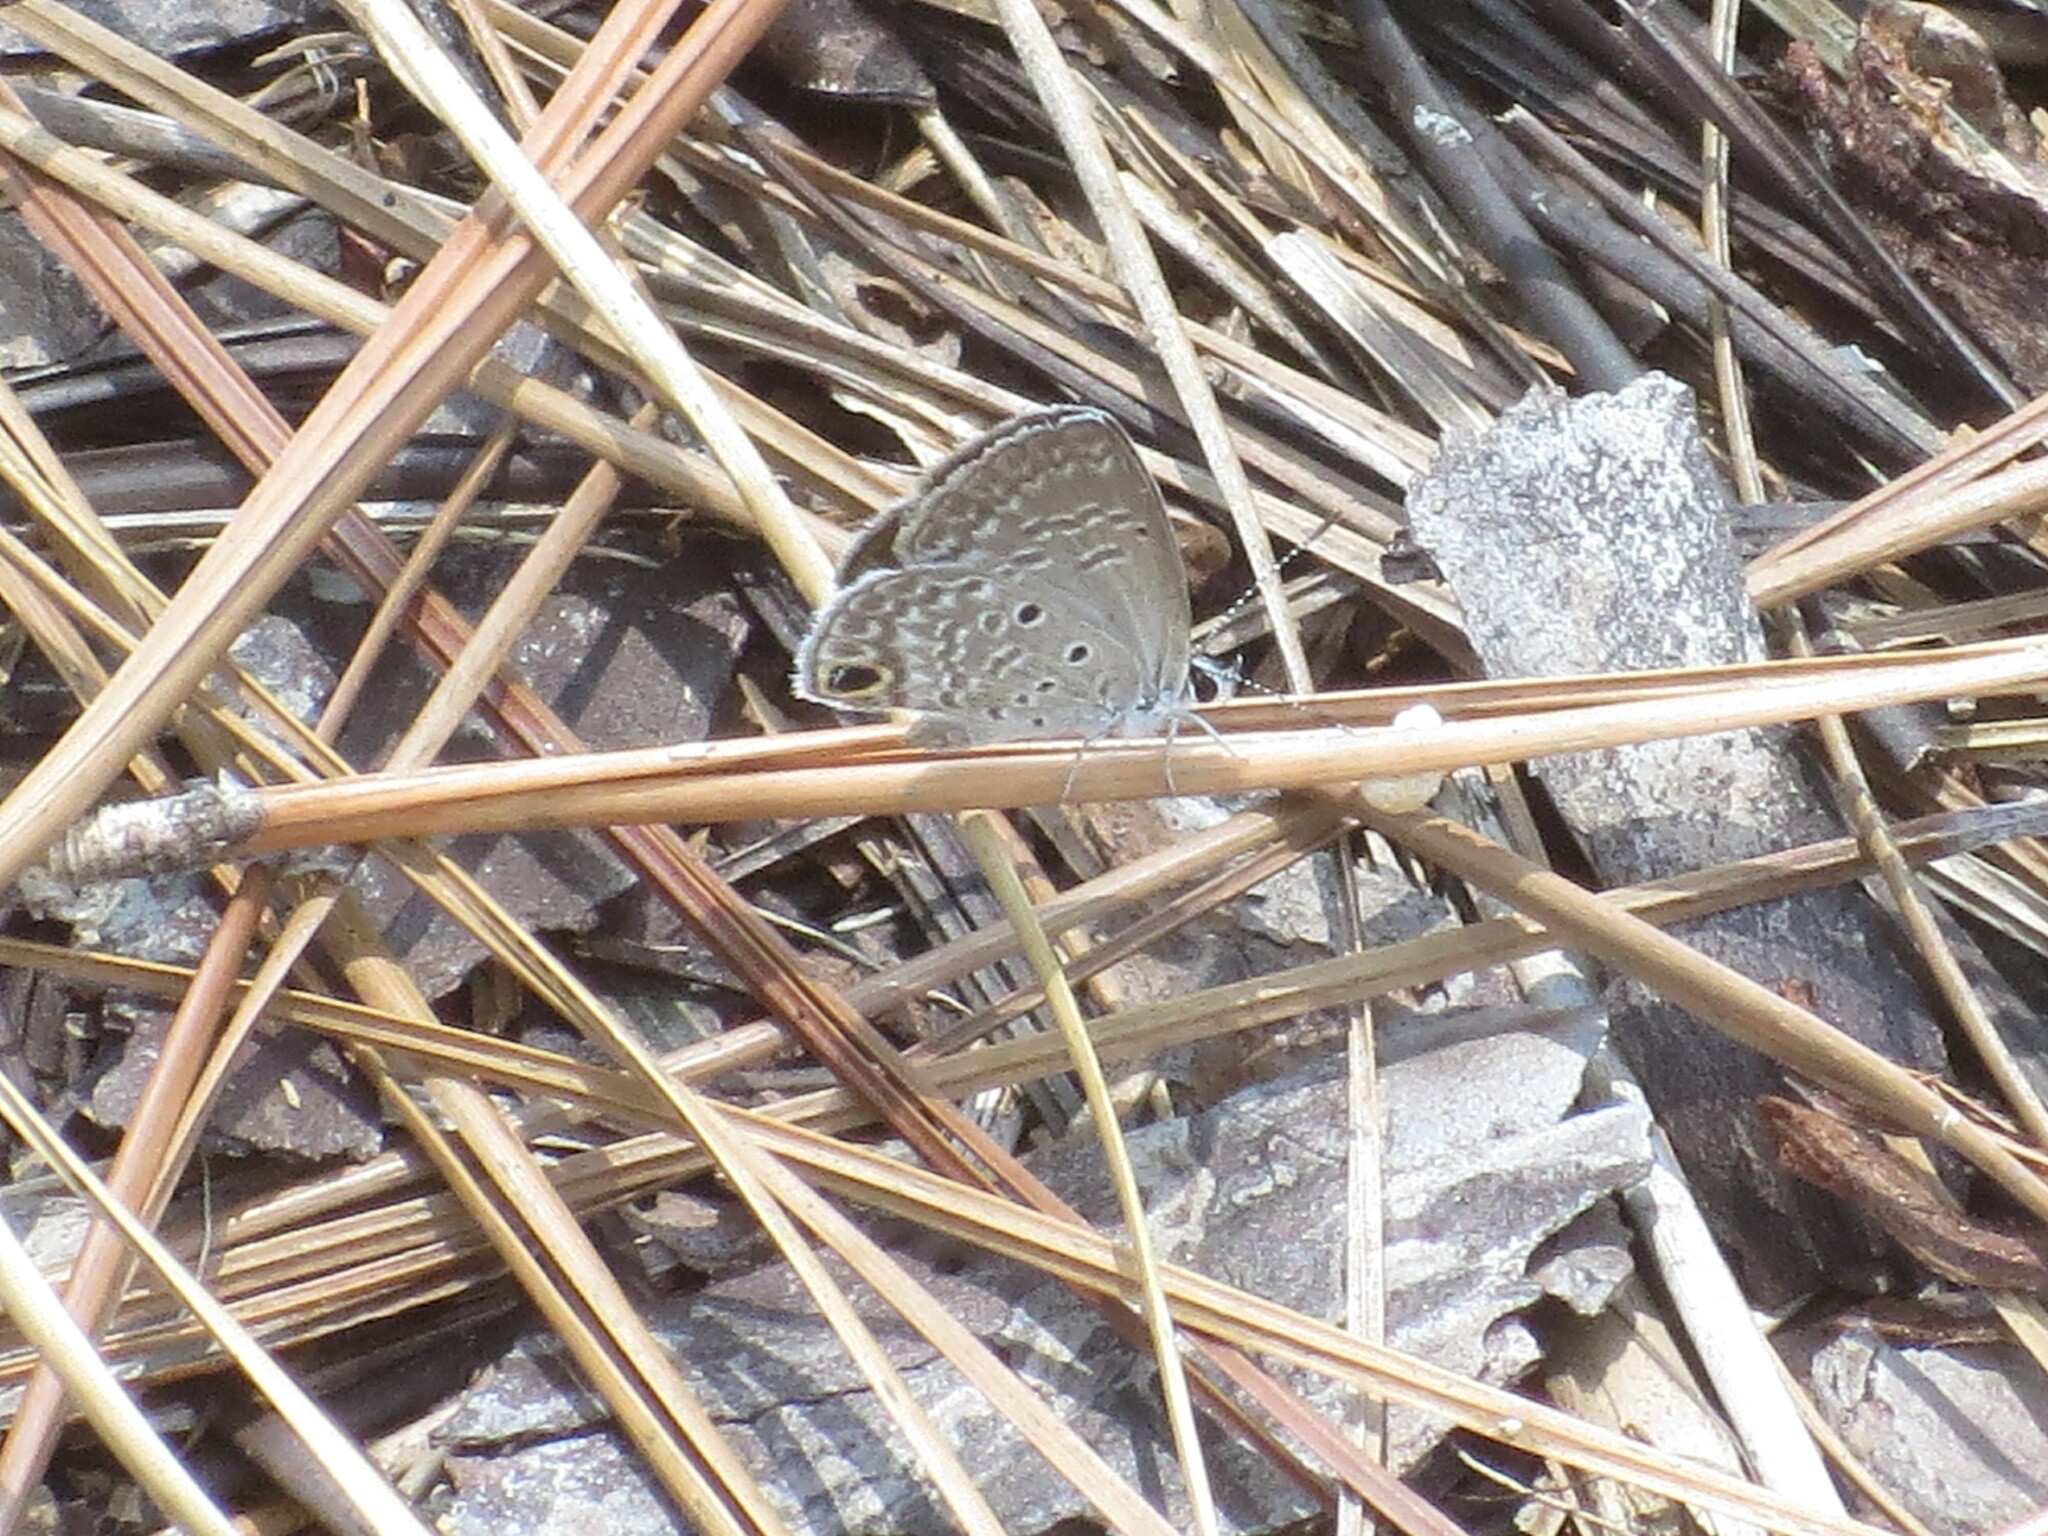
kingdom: Animalia
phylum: Arthropoda
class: Insecta
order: Lepidoptera
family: Lycaenidae
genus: Hemiargus
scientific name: Hemiargus ceraunus
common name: Ceraunus blue
